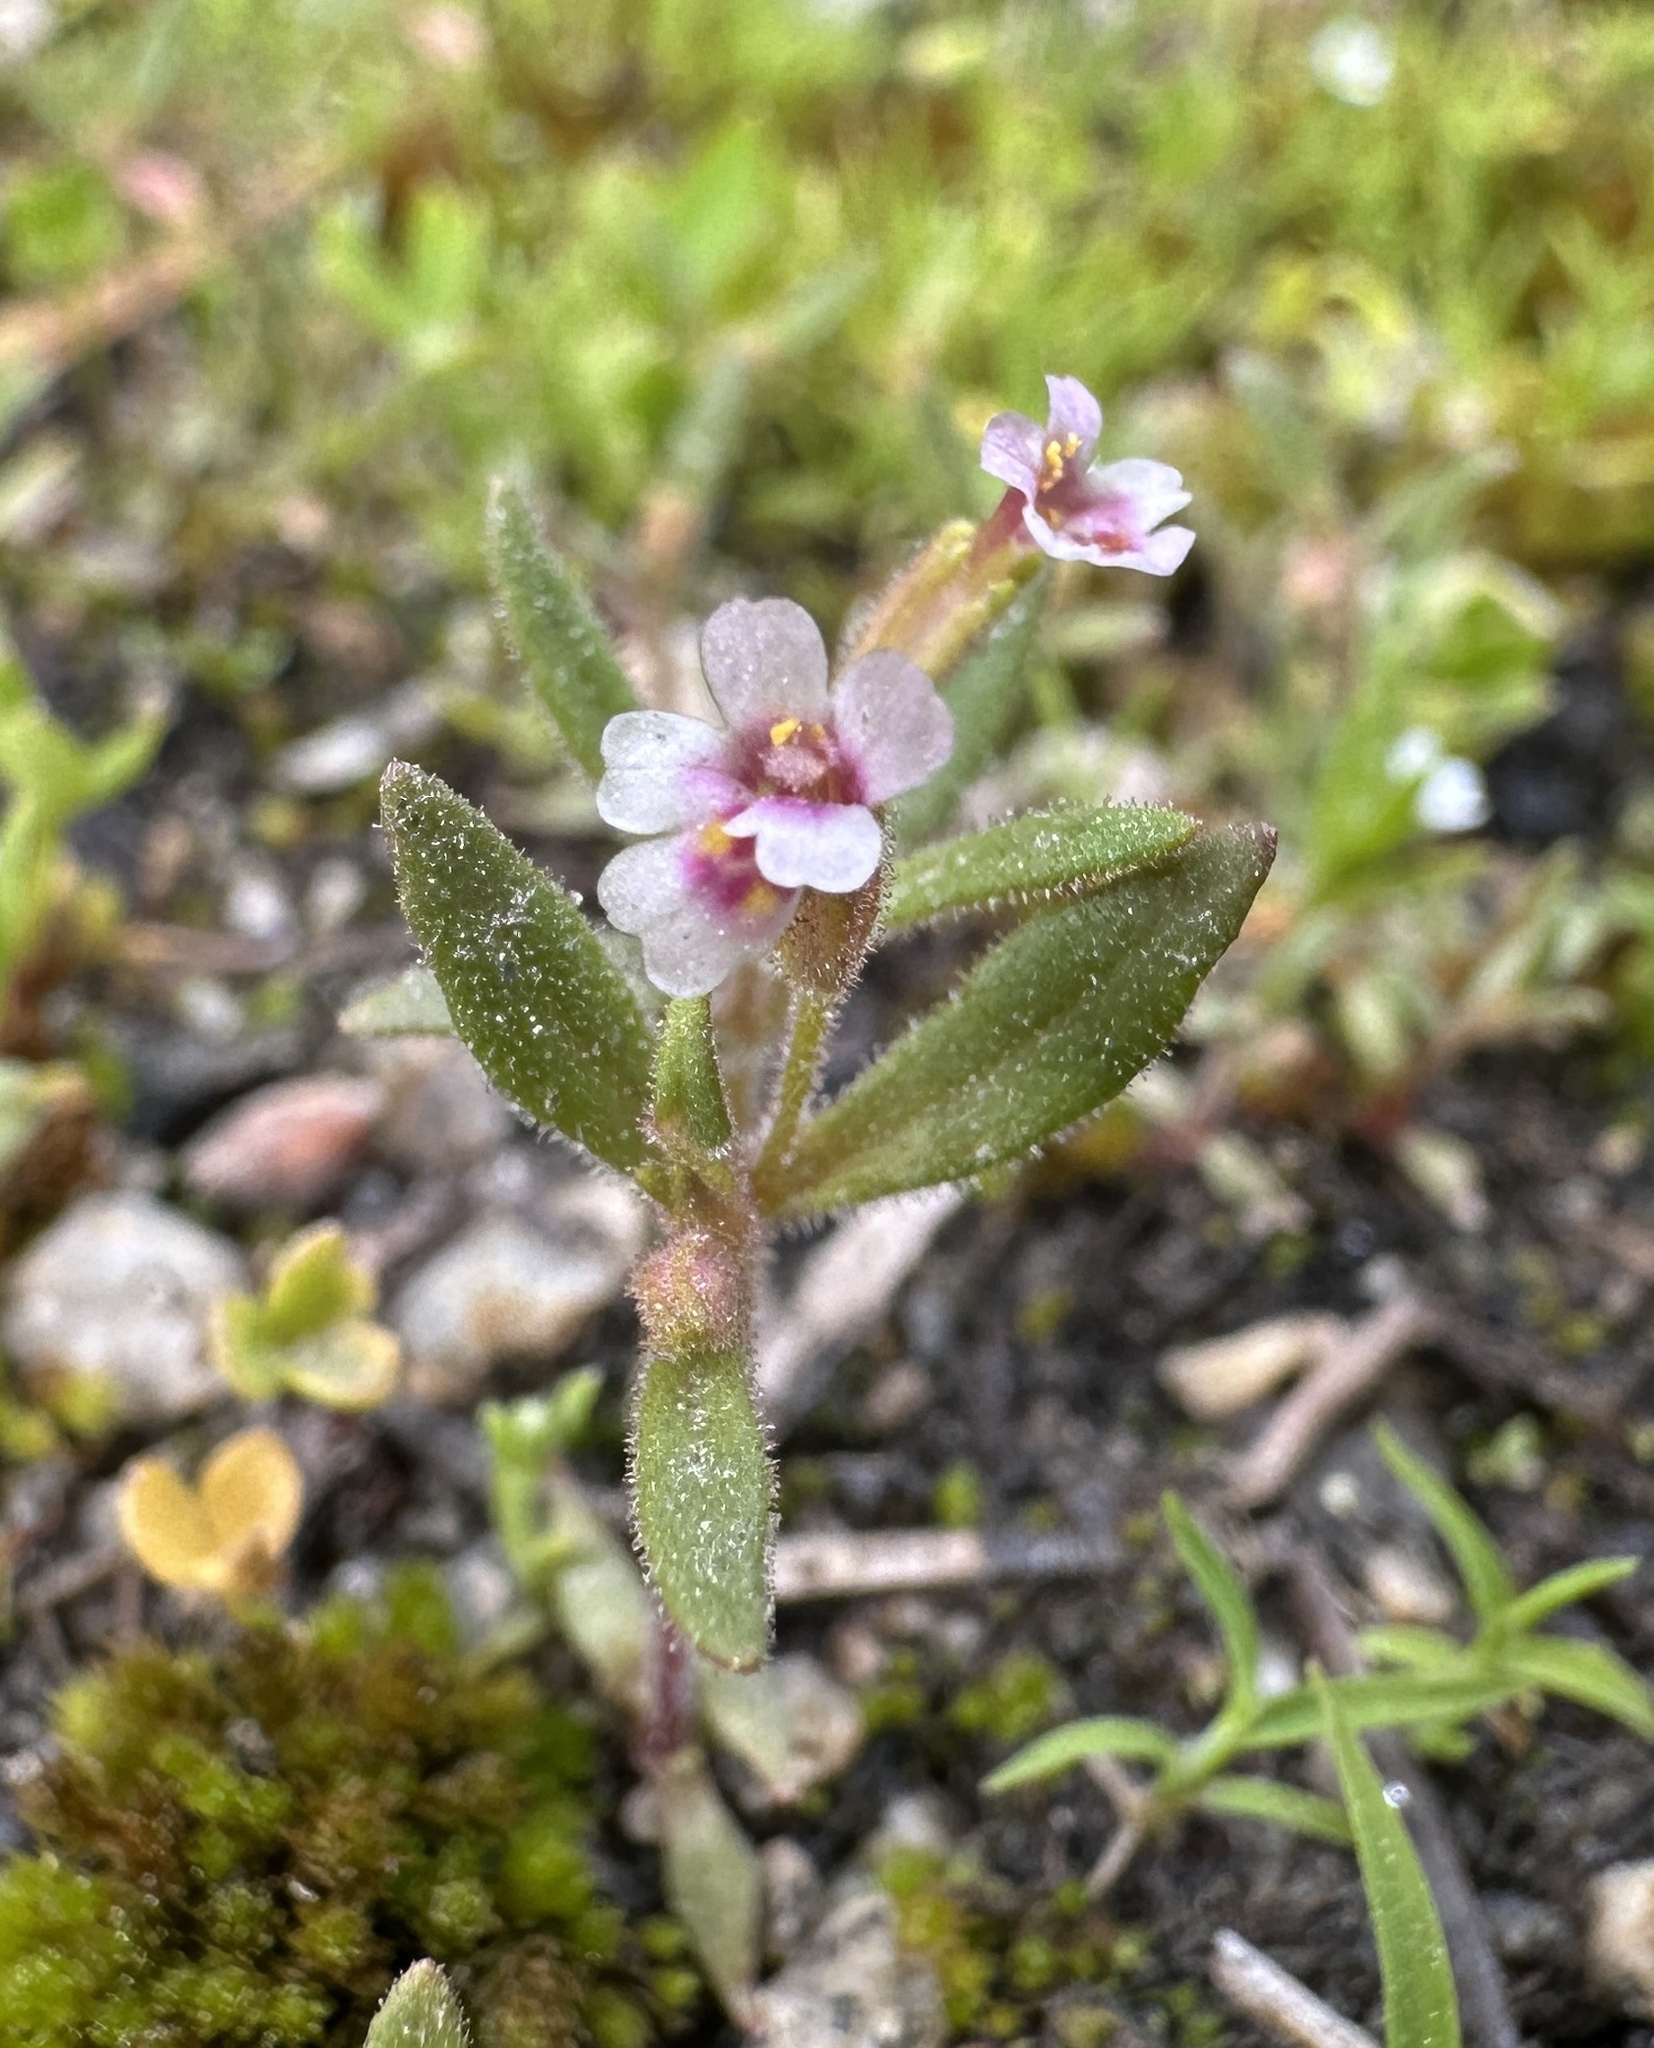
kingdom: Plantae
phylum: Tracheophyta
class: Magnoliopsida
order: Lamiales
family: Phrymaceae
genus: Erythranthe
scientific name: Erythranthe breweri
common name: Brewer's monkeyflower
